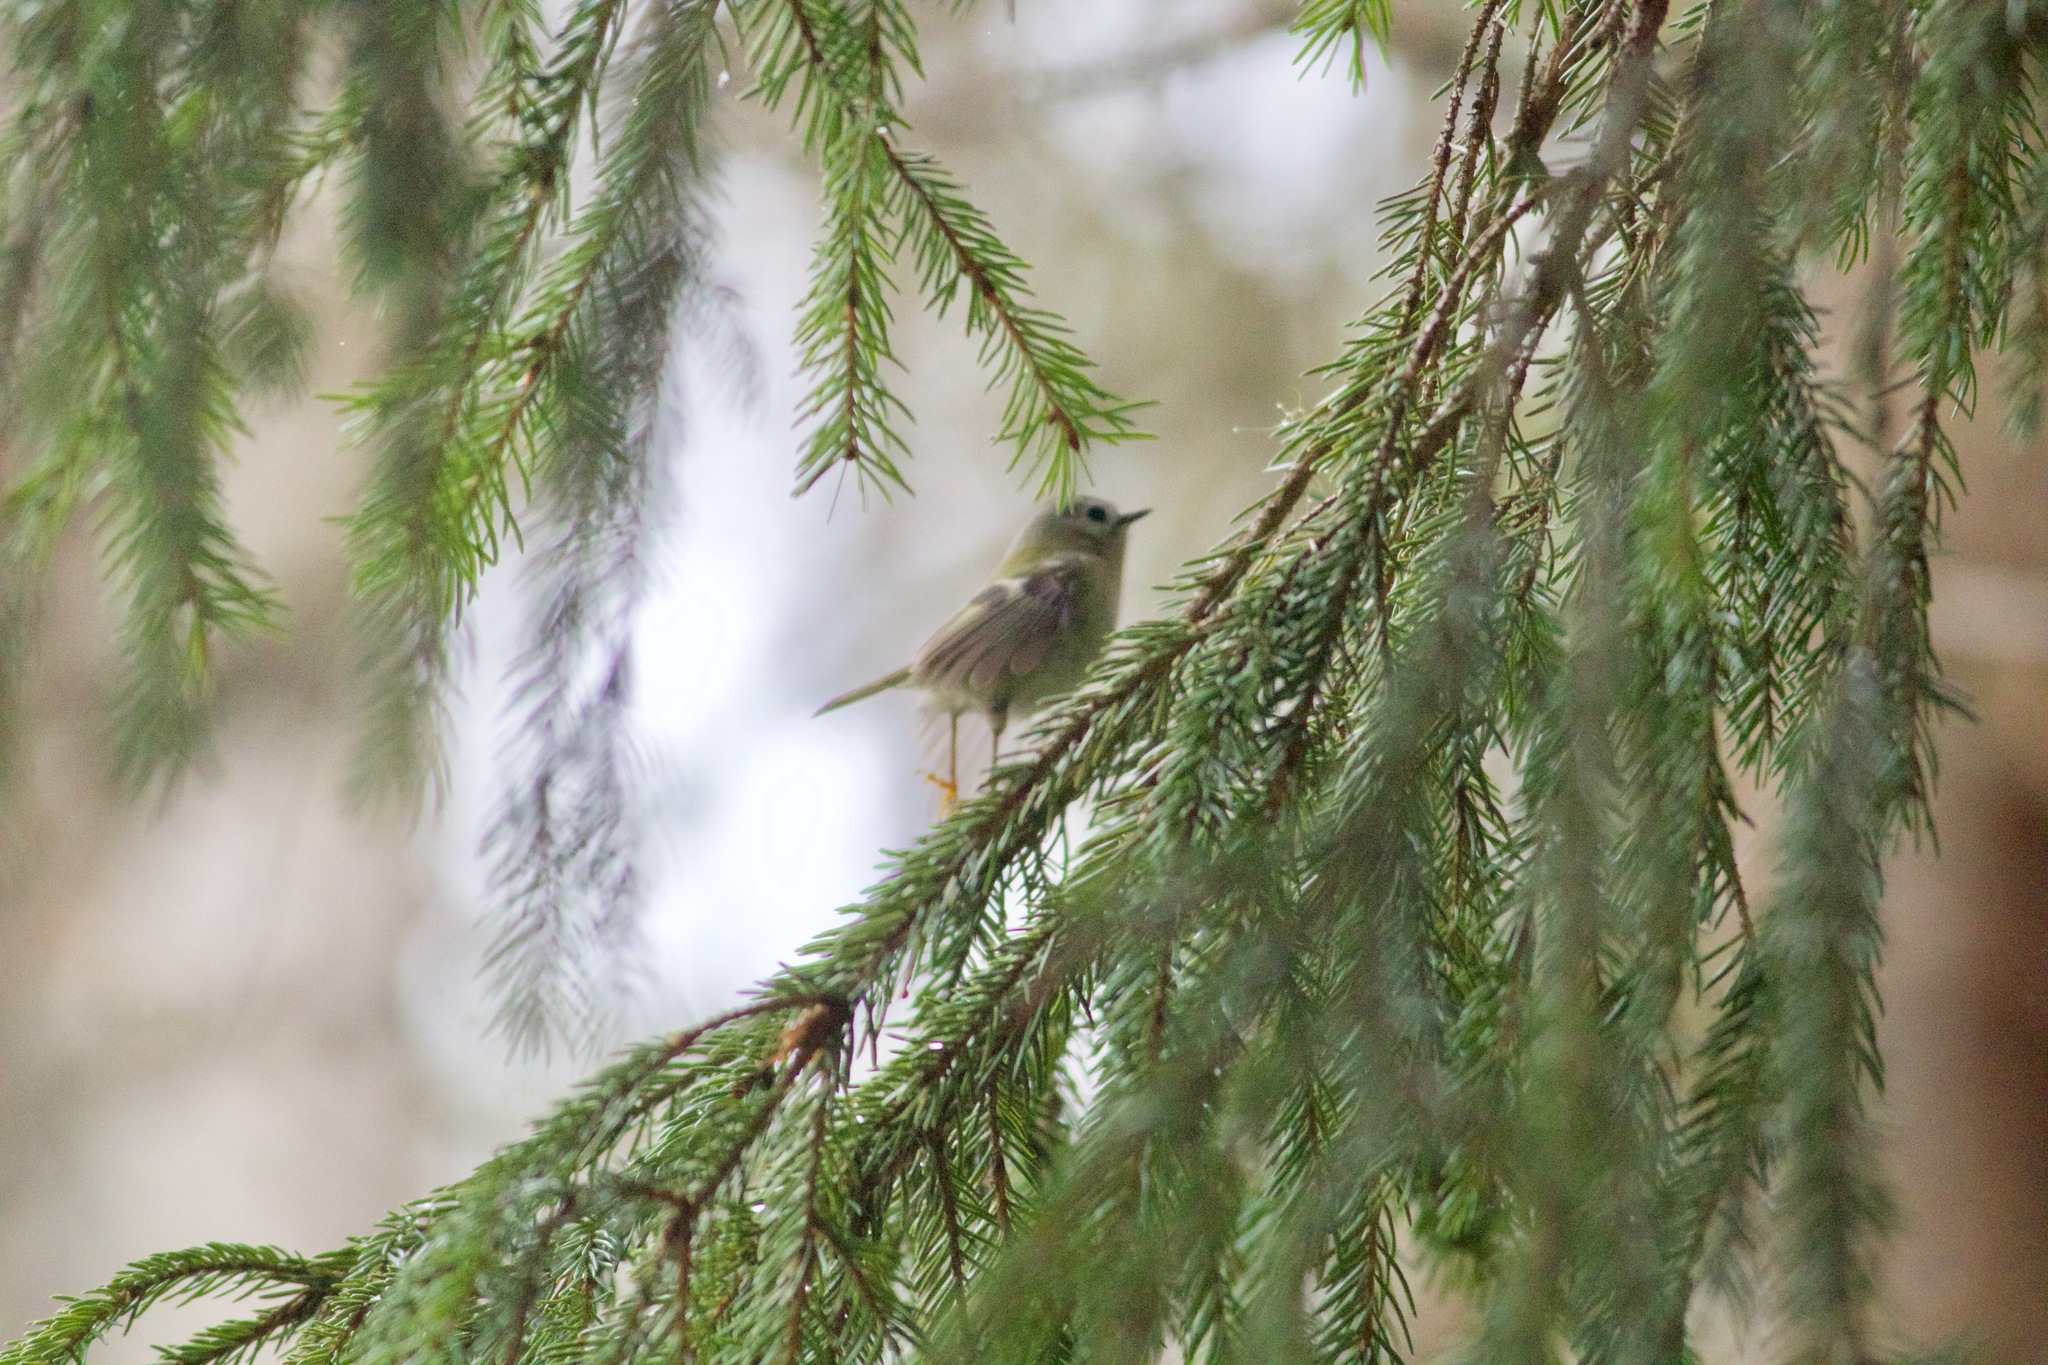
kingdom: Animalia
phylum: Chordata
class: Aves
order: Passeriformes
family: Regulidae
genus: Regulus
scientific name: Regulus regulus
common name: Goldcrest
